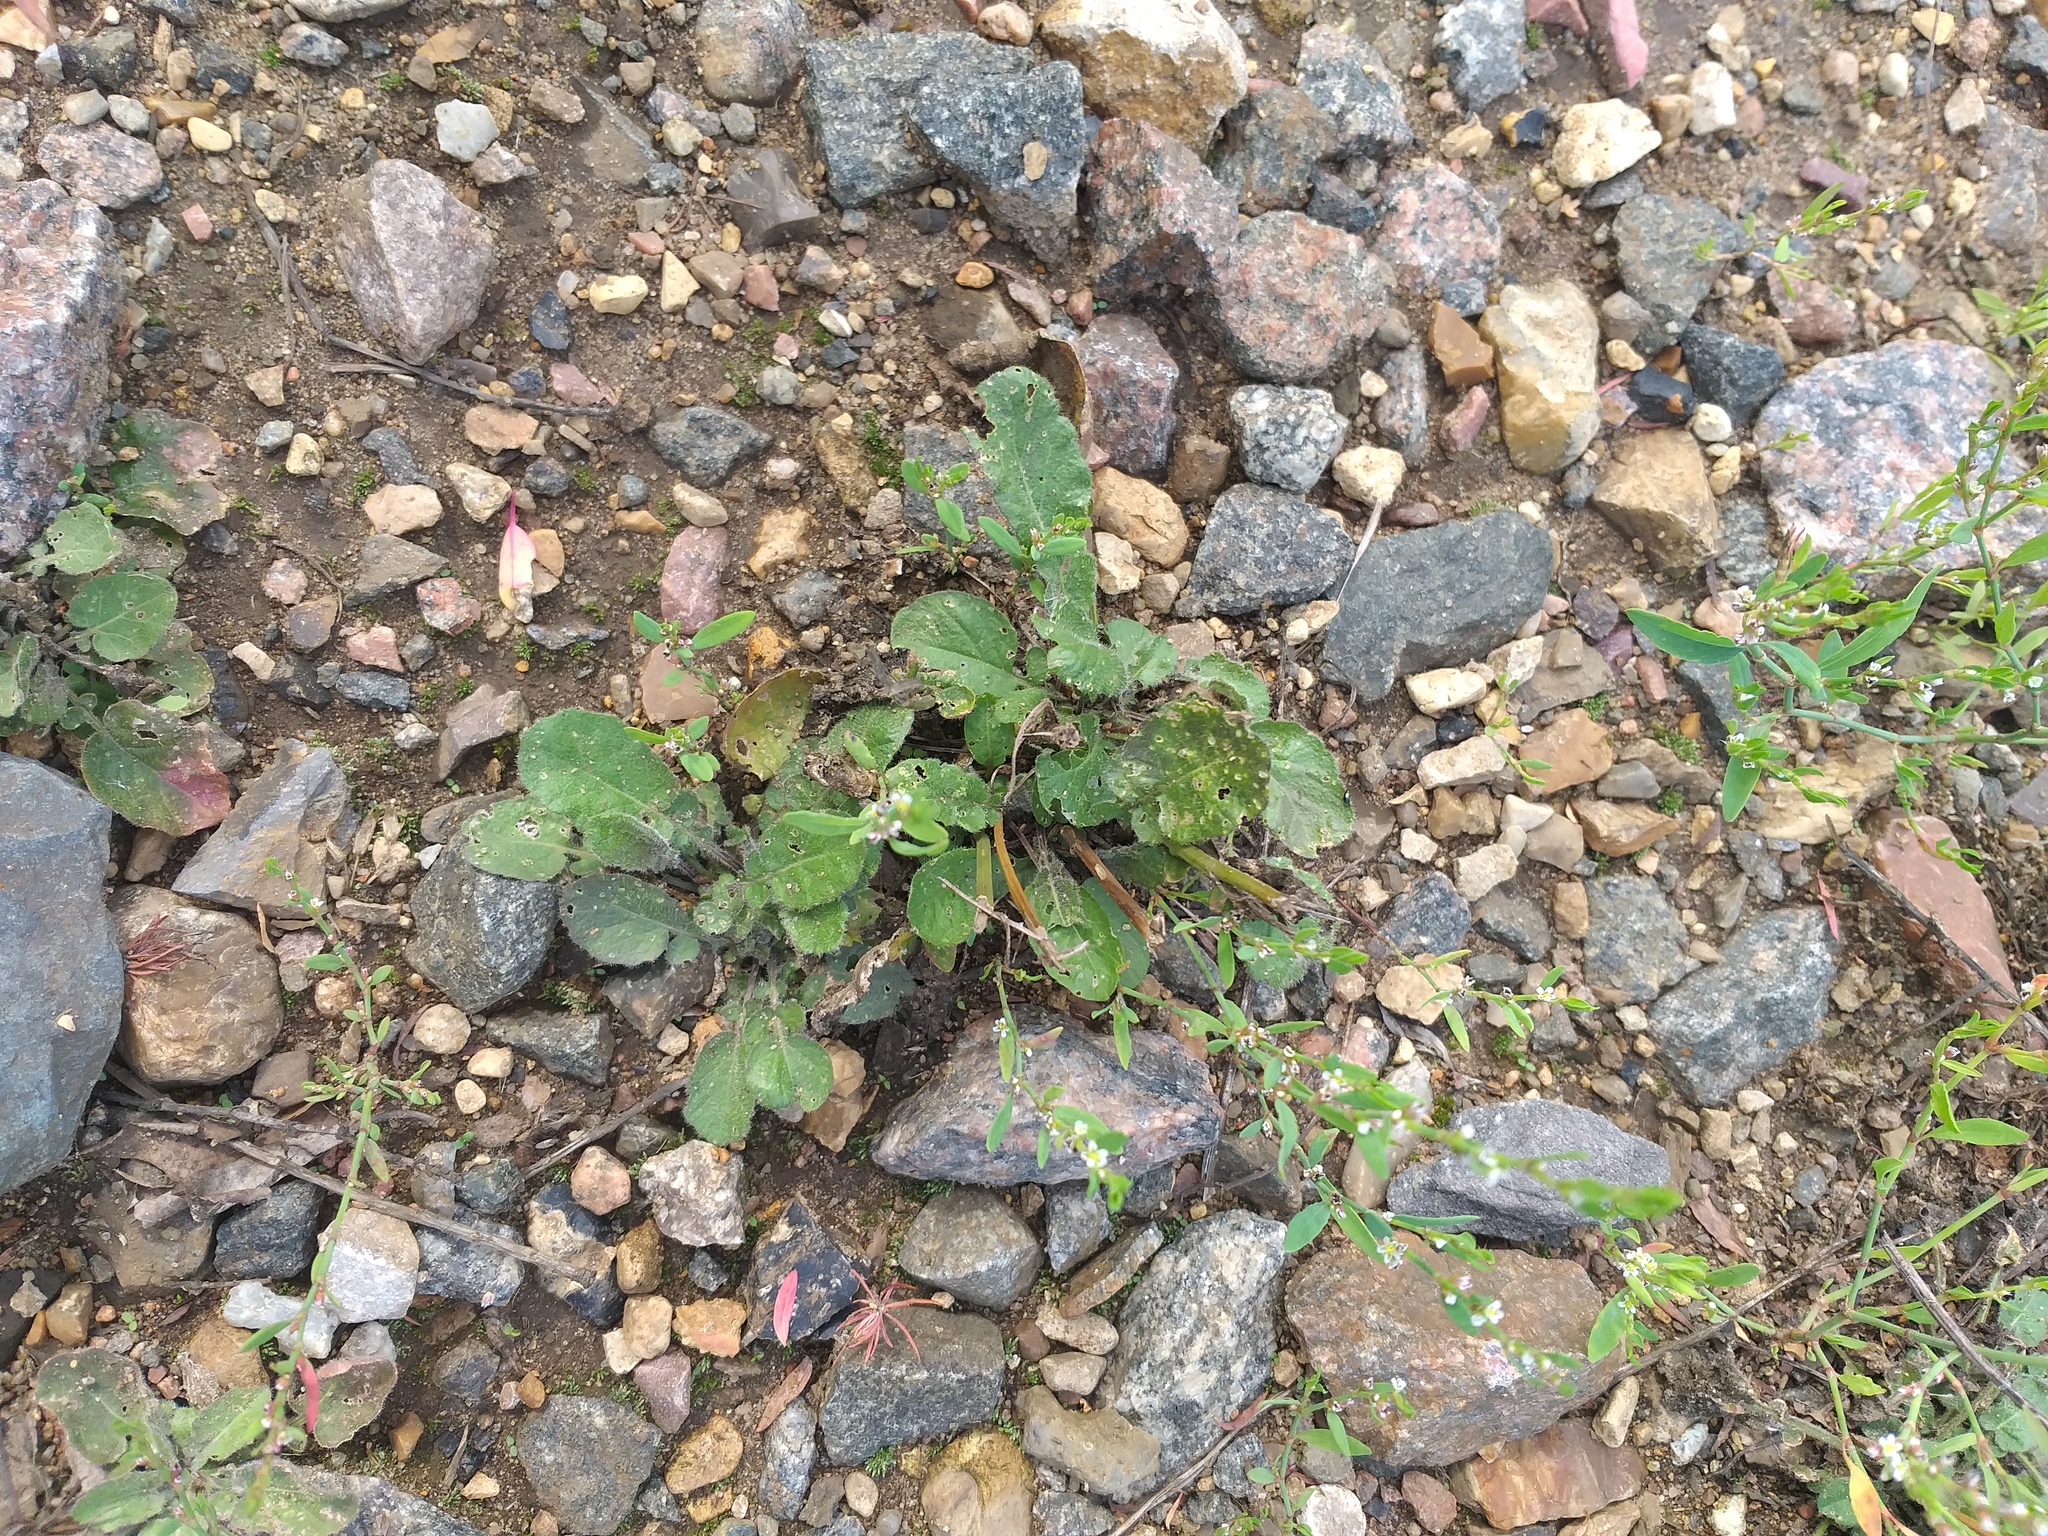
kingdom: Plantae
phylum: Tracheophyta
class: Magnoliopsida
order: Brassicales
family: Brassicaceae
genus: Barbarea
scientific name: Barbarea vulgaris
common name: Cressy-greens
